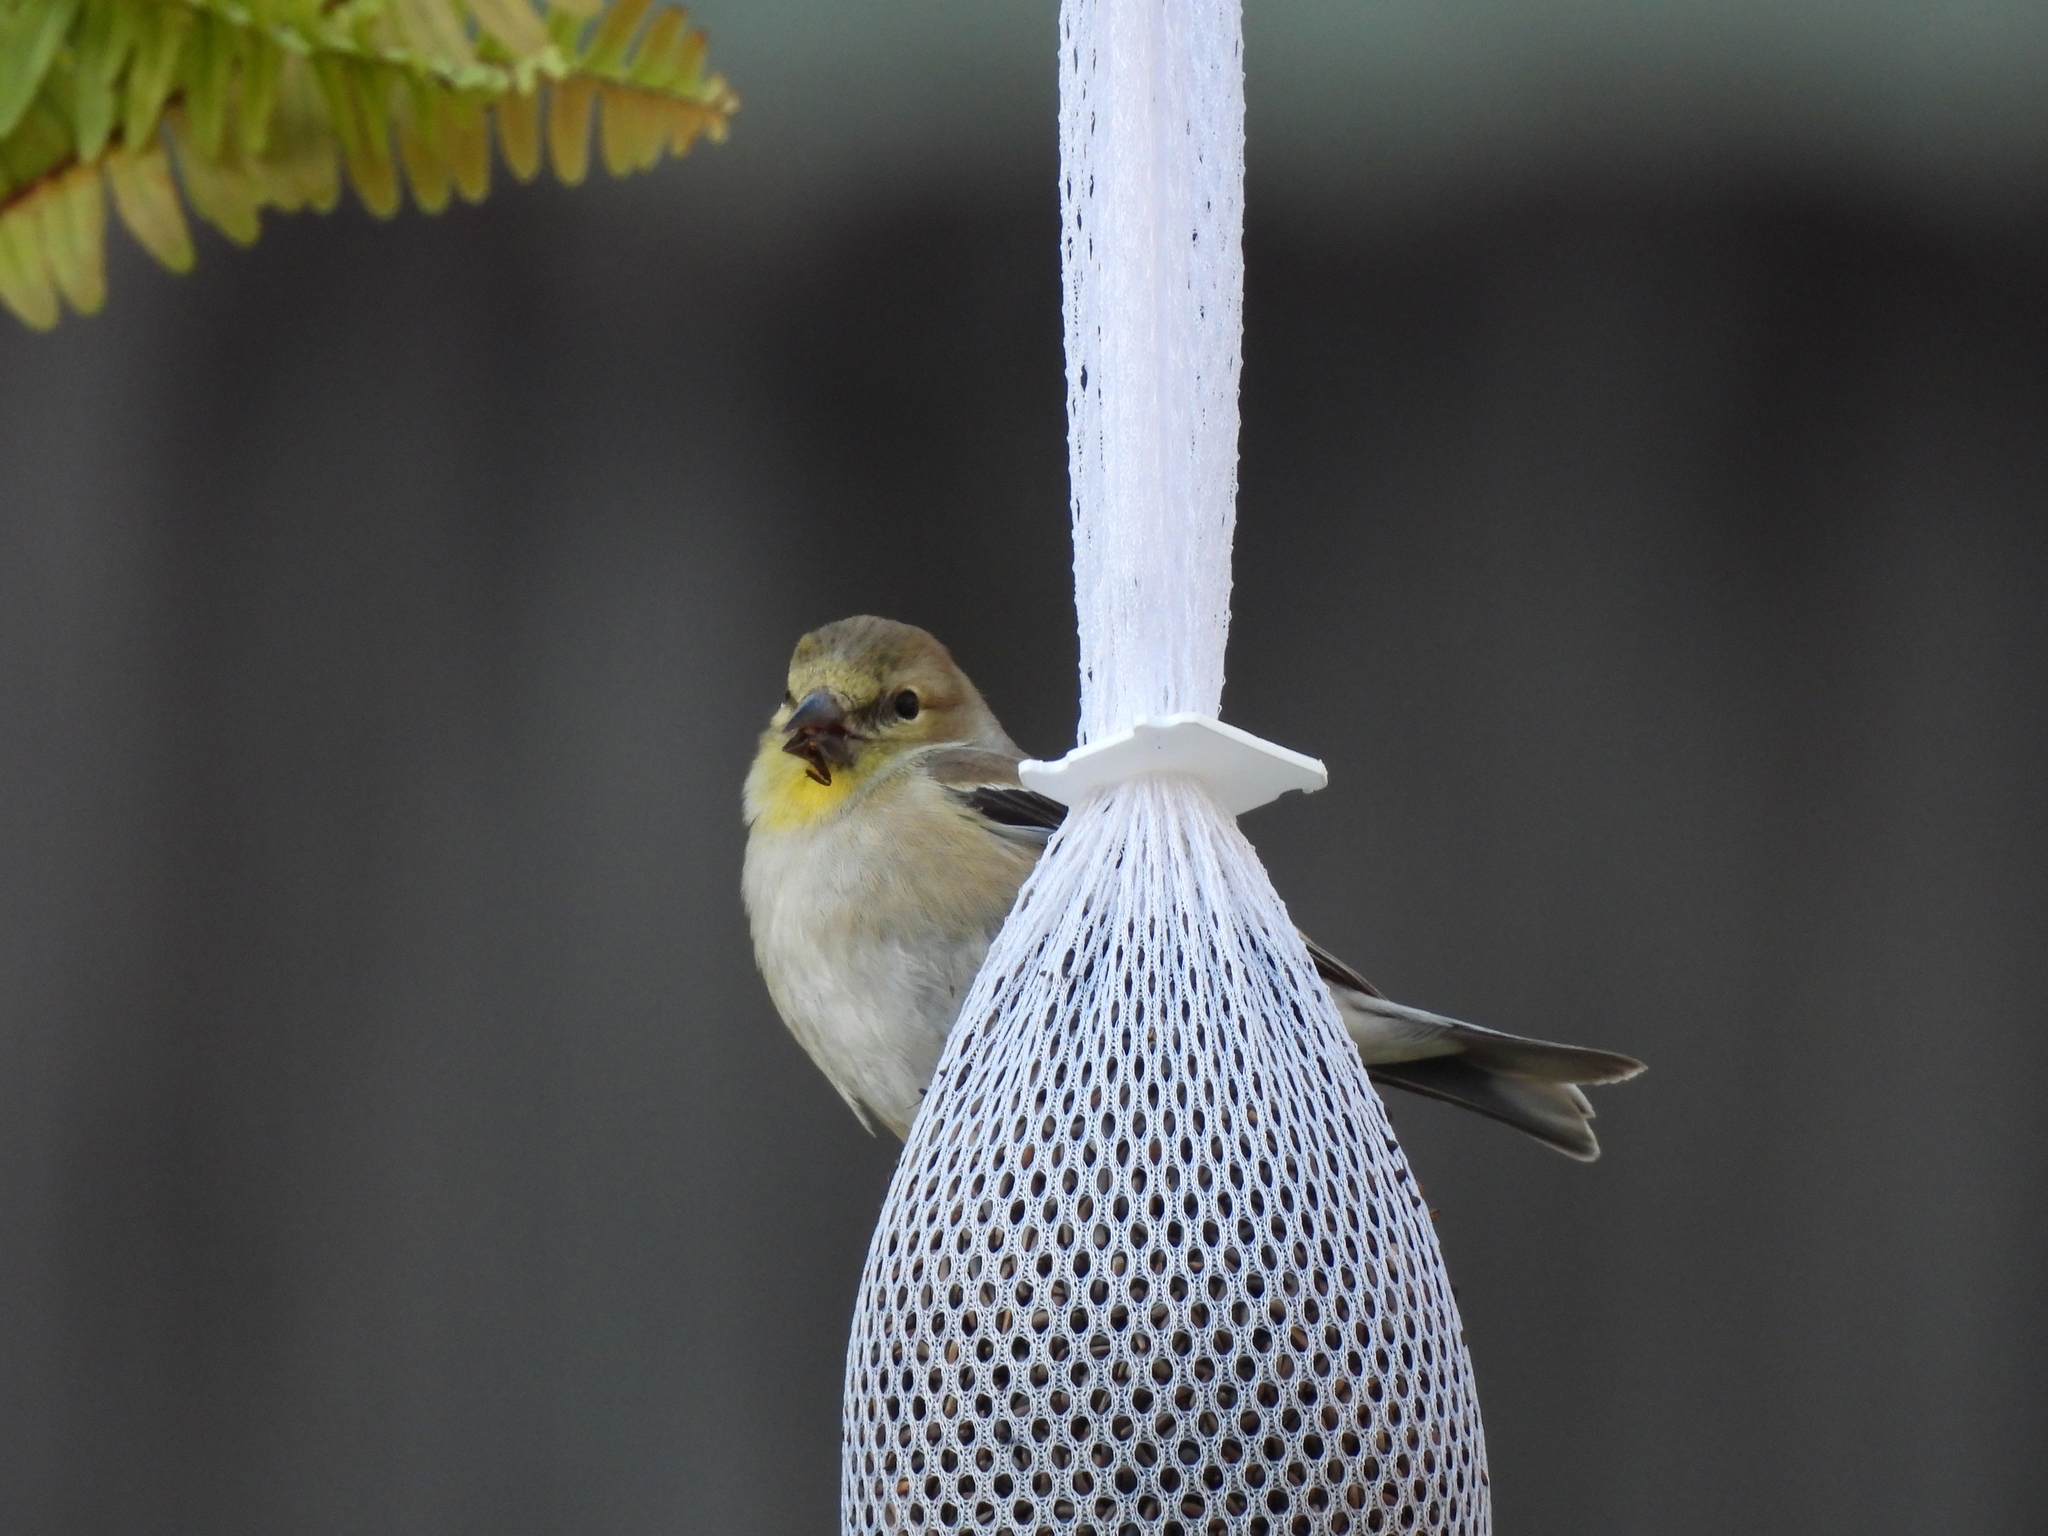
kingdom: Animalia
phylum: Chordata
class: Aves
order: Passeriformes
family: Fringillidae
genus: Spinus
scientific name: Spinus tristis
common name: American goldfinch
